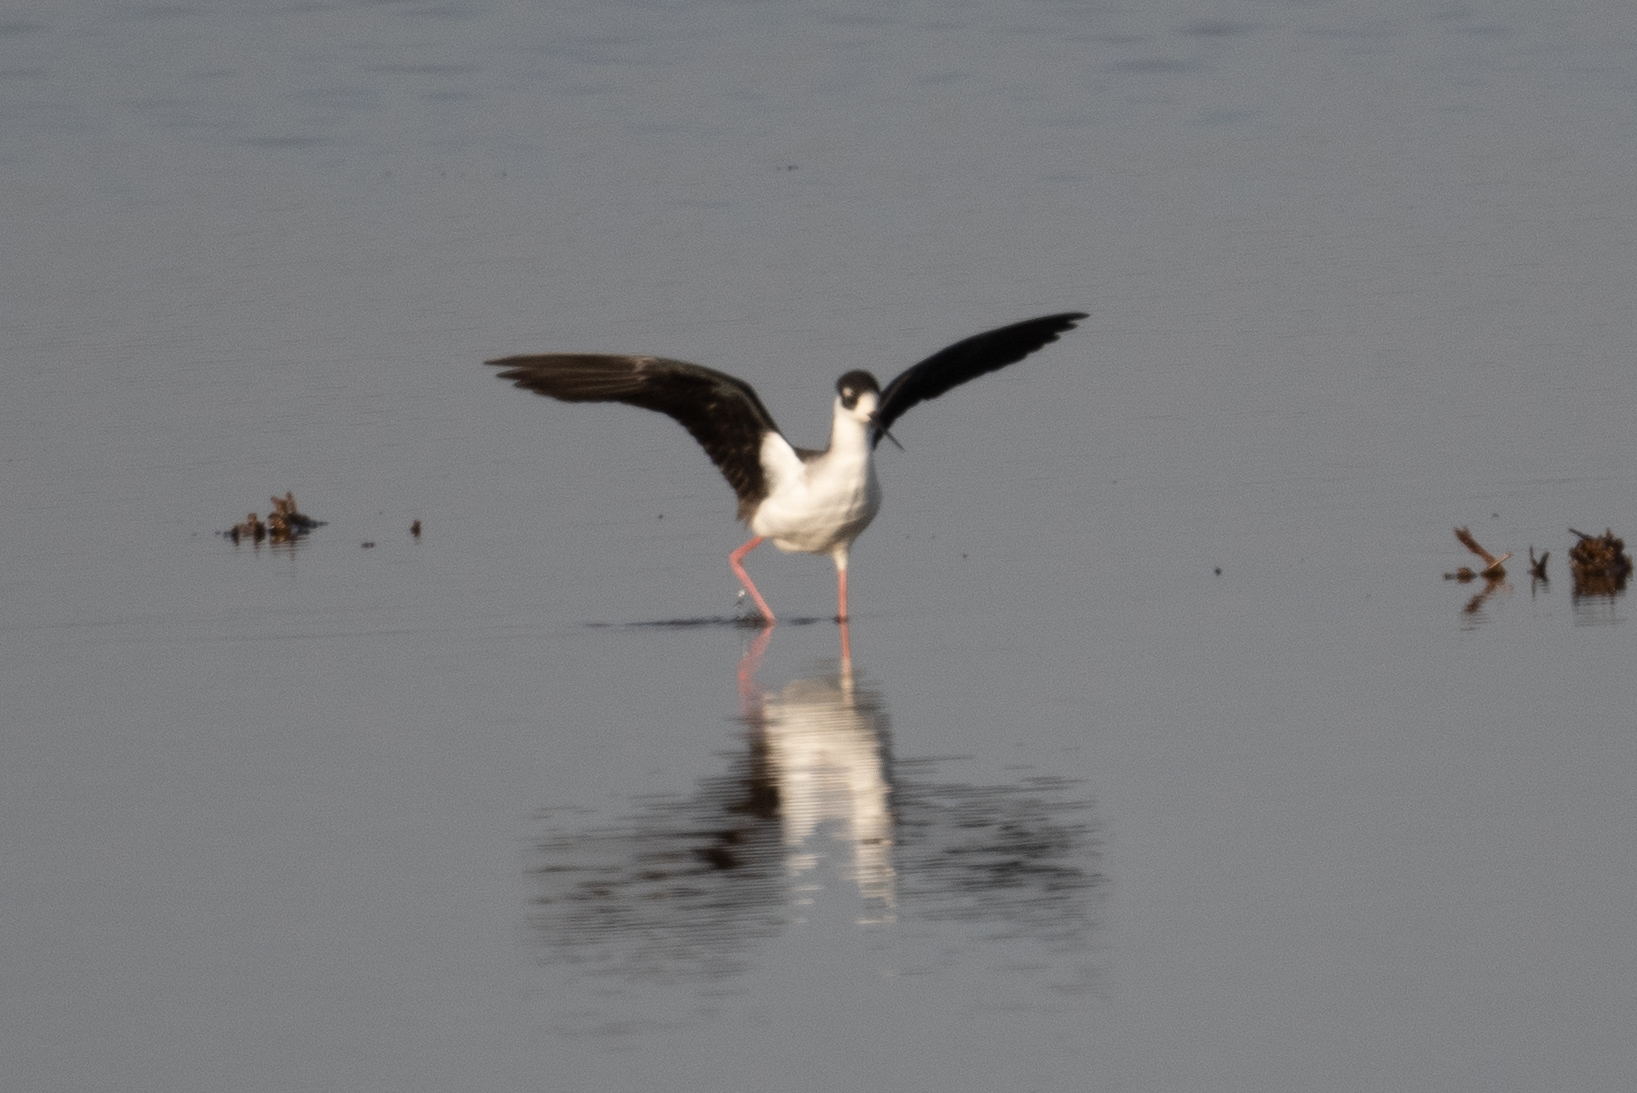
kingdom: Animalia
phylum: Chordata
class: Aves
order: Charadriiformes
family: Recurvirostridae
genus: Himantopus
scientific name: Himantopus mexicanus
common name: Black-necked stilt
